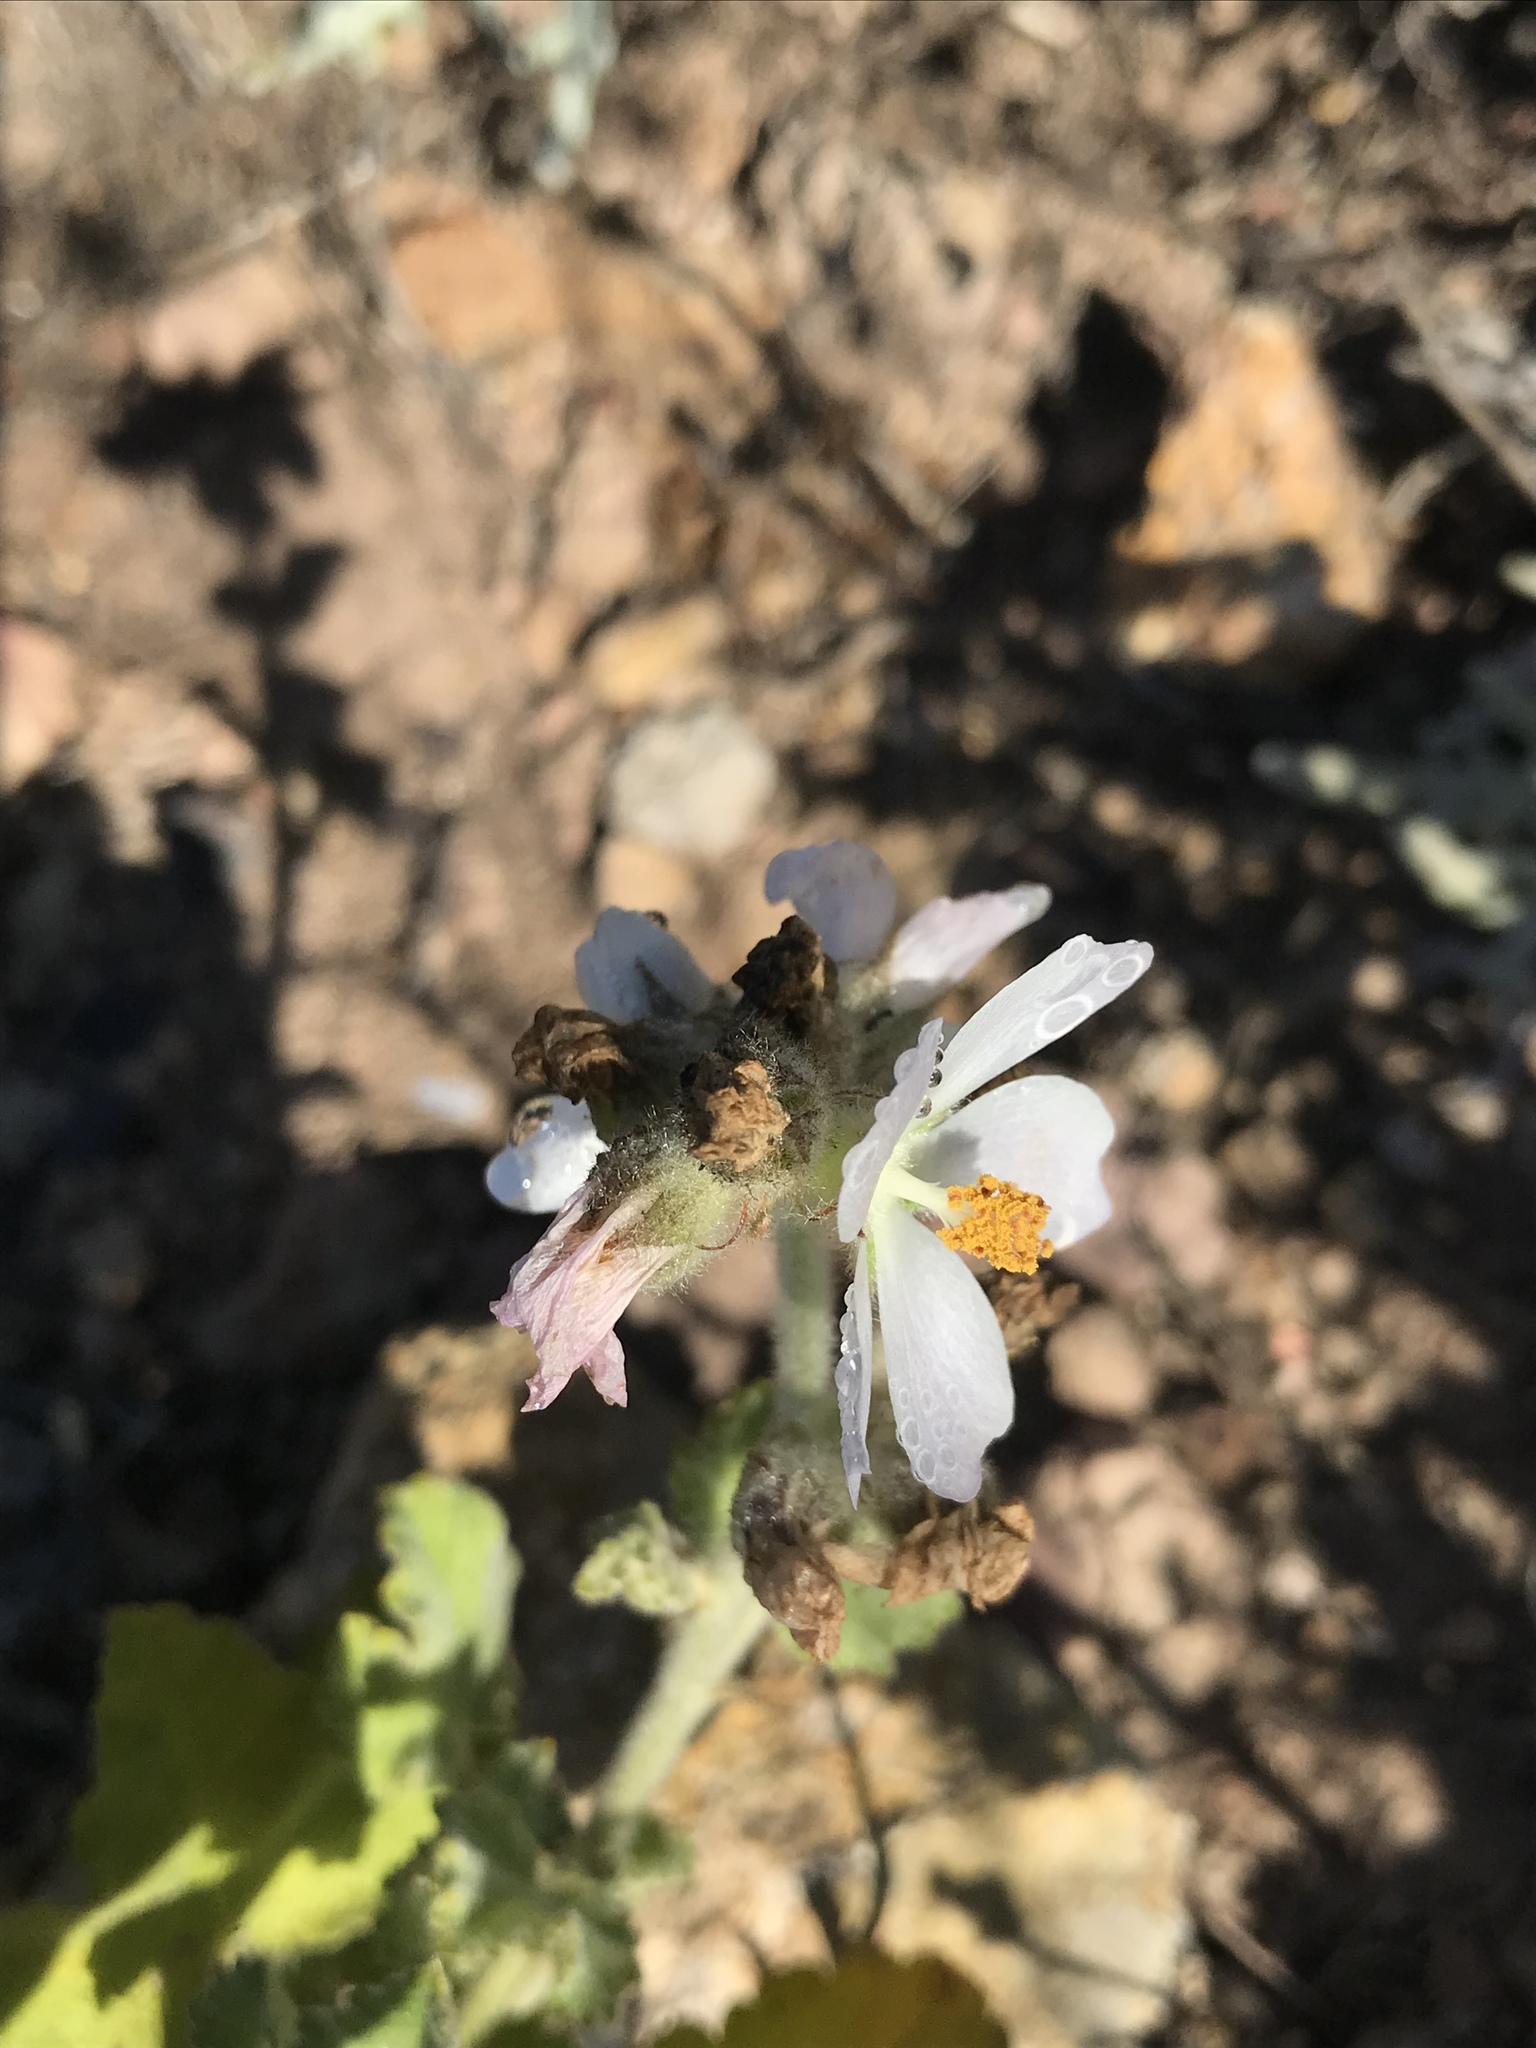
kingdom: Plantae
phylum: Tracheophyta
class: Magnoliopsida
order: Malvales
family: Malvaceae
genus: Malacothamnus
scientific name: Malacothamnus clementinus
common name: San clemente island bush-mallow
